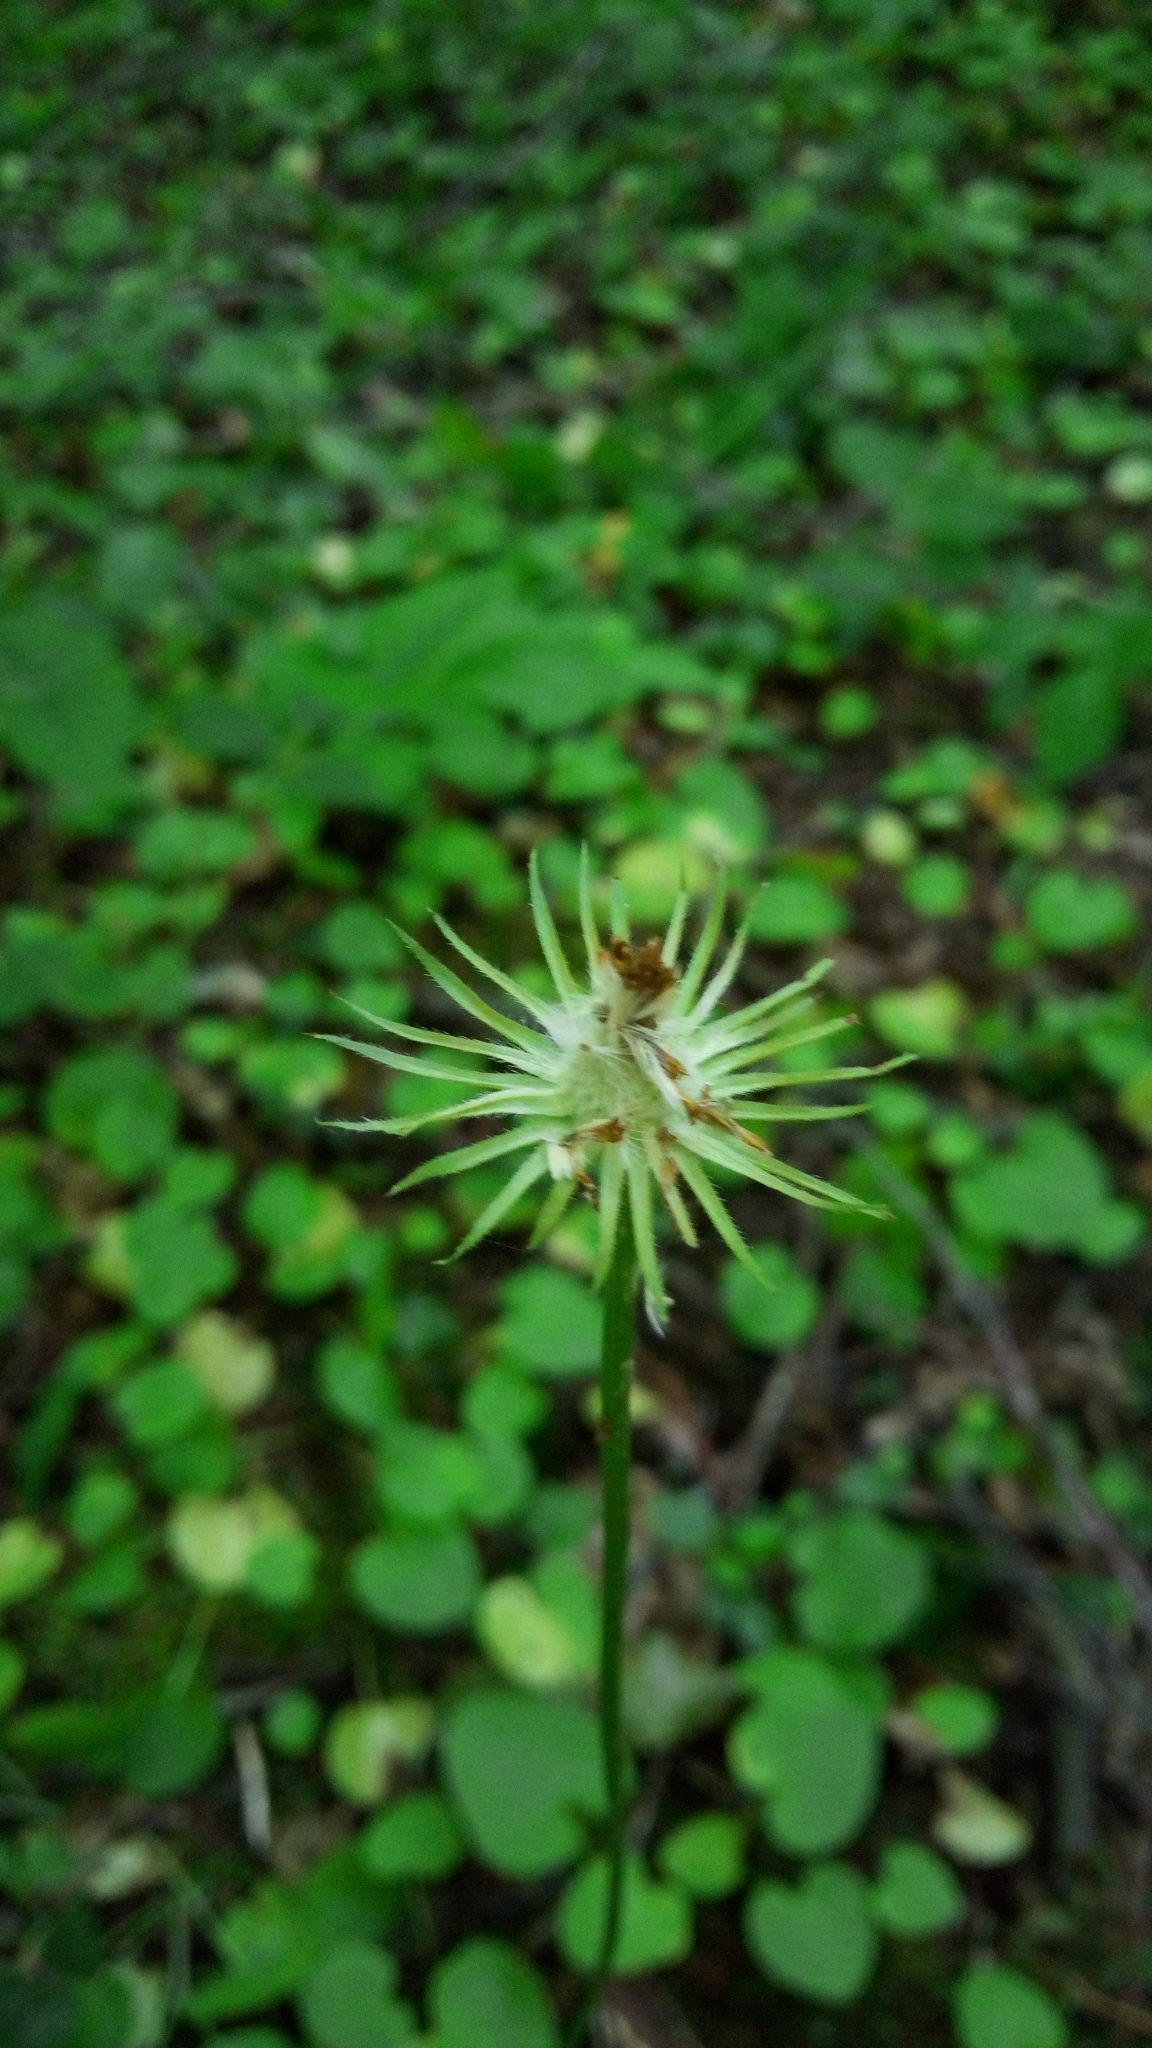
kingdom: Plantae
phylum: Tracheophyta
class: Magnoliopsida
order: Asterales
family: Asteraceae
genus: Doronicum
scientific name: Doronicum
